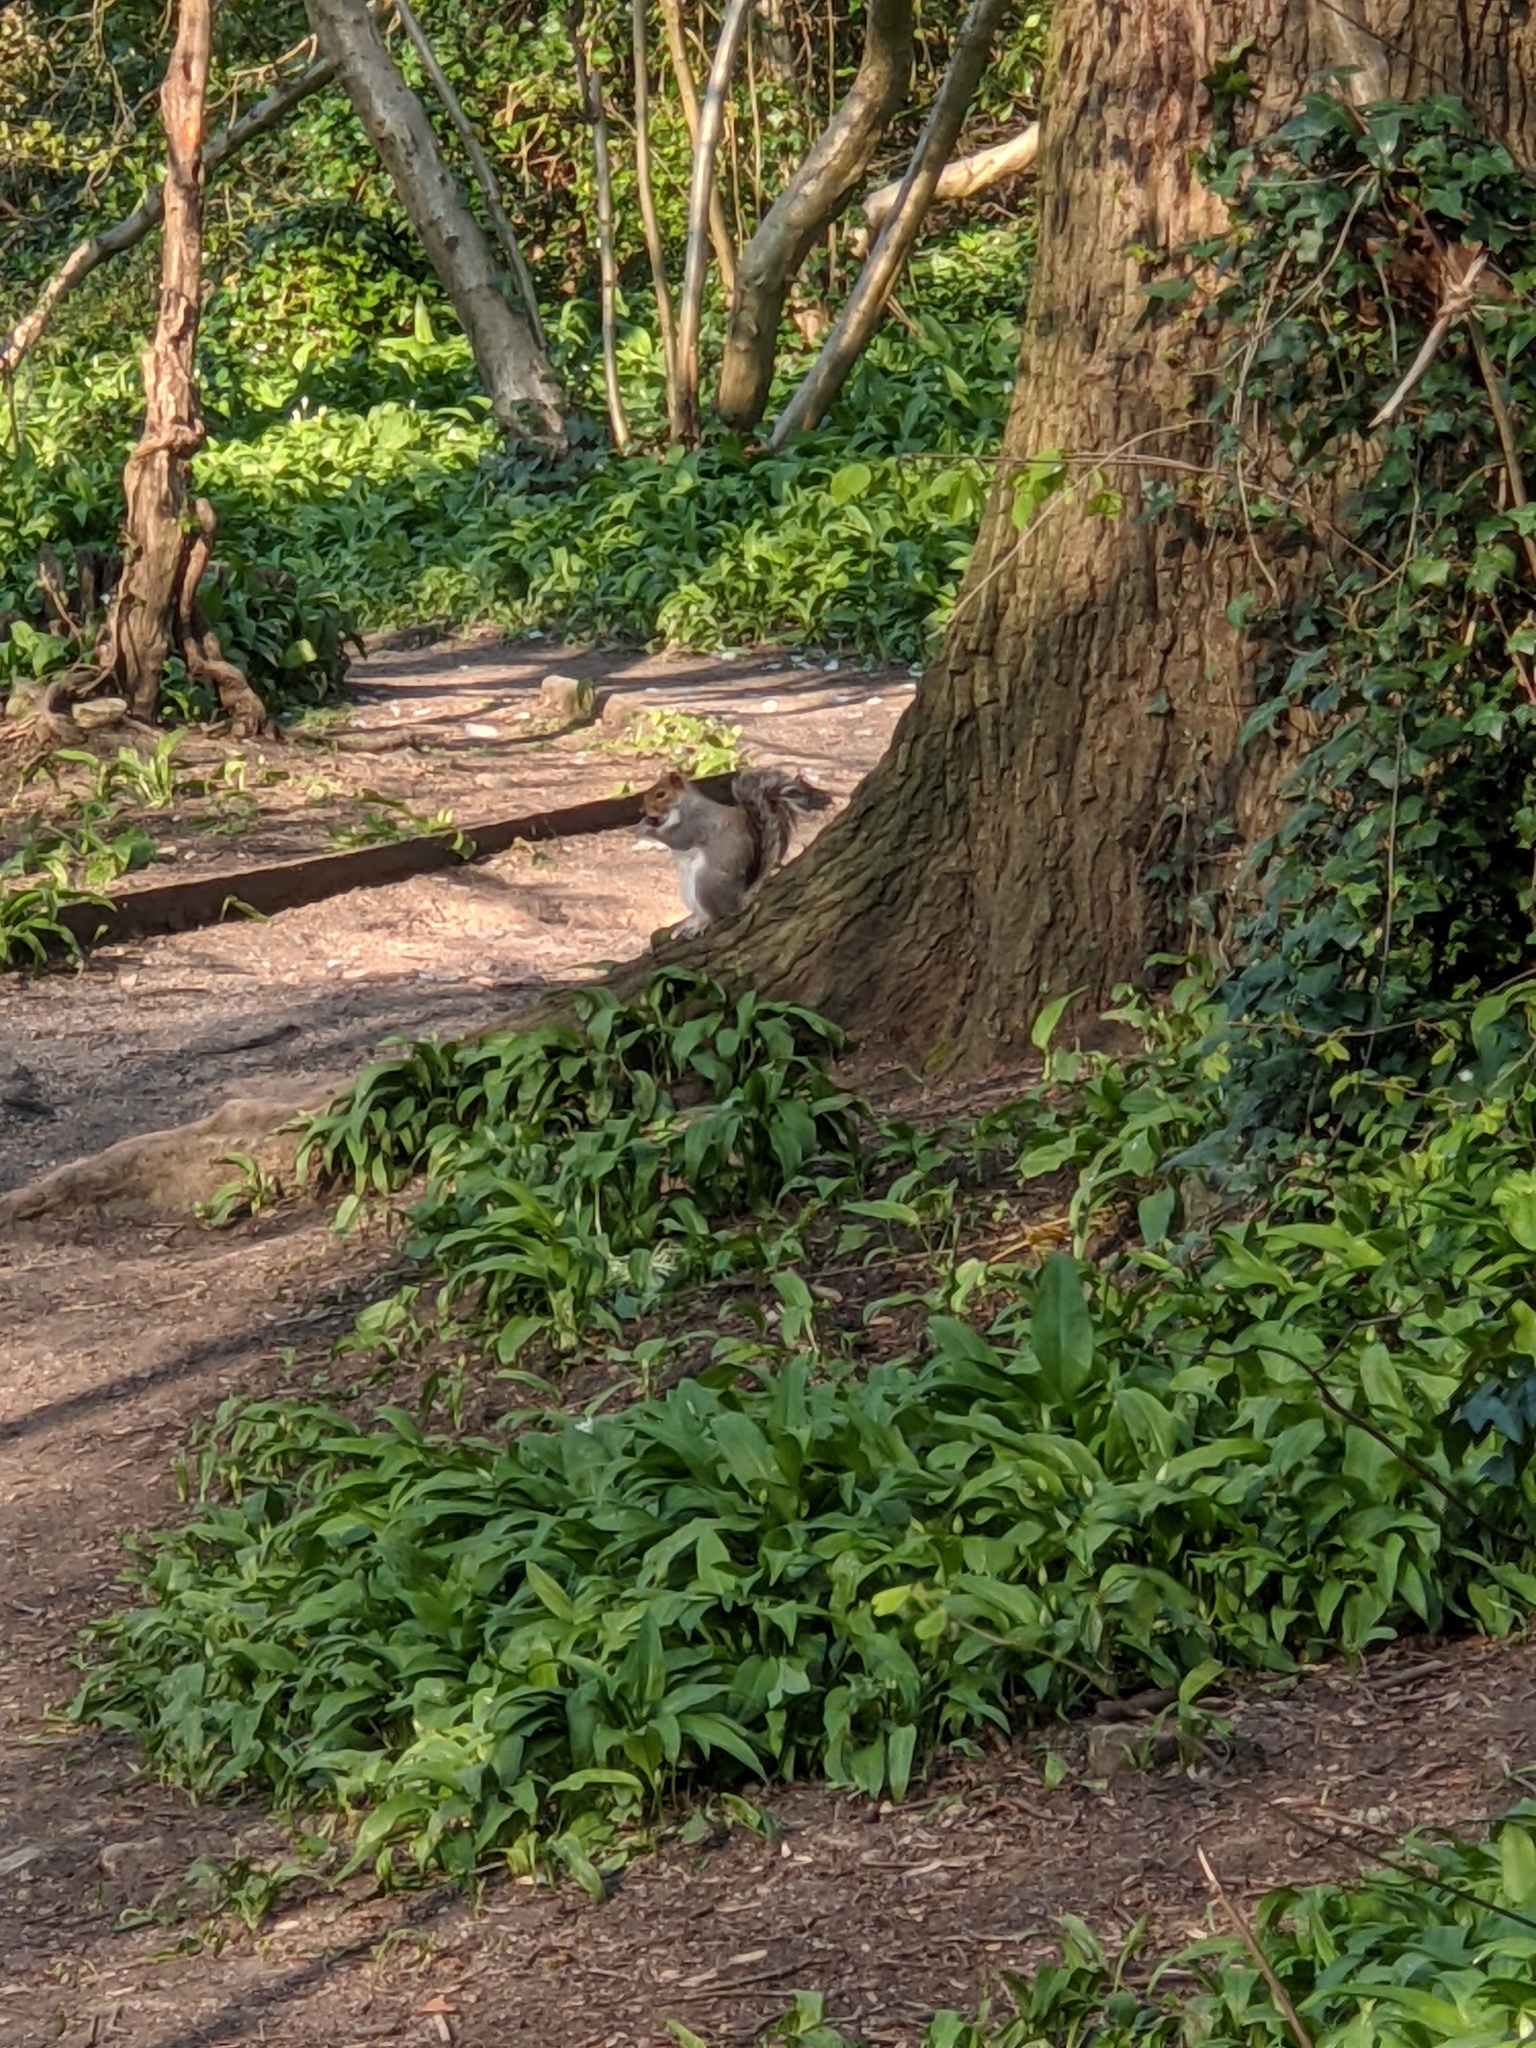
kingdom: Plantae
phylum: Tracheophyta
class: Liliopsida
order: Asparagales
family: Amaryllidaceae
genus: Allium
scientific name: Allium ursinum
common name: Ramsons
